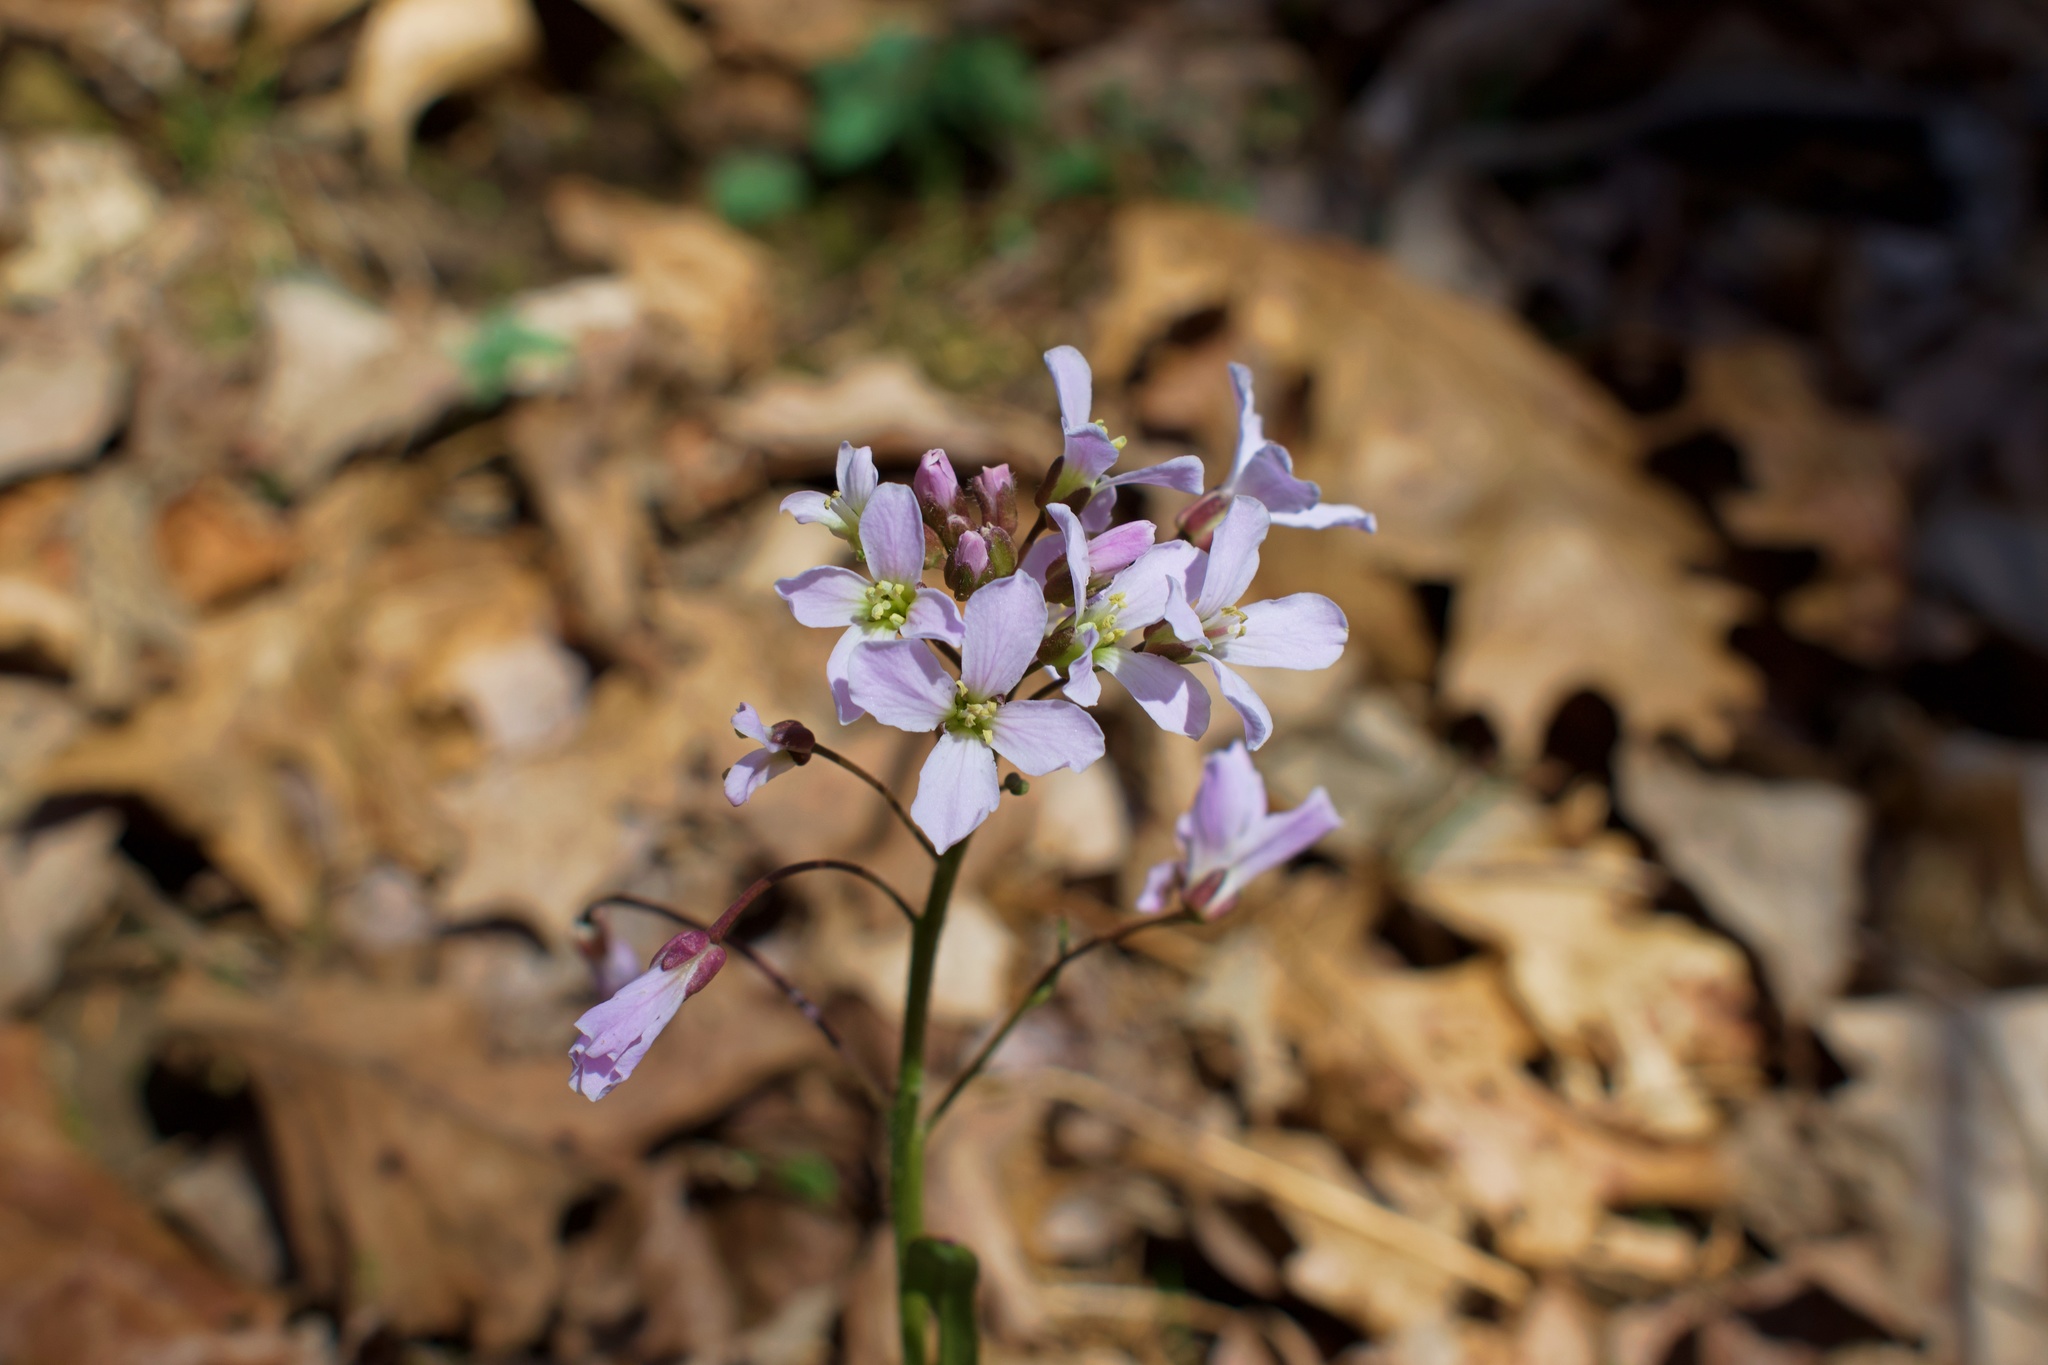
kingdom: Plantae
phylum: Tracheophyta
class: Magnoliopsida
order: Brassicales
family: Brassicaceae
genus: Cardamine
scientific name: Cardamine douglassii
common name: Purple cress
